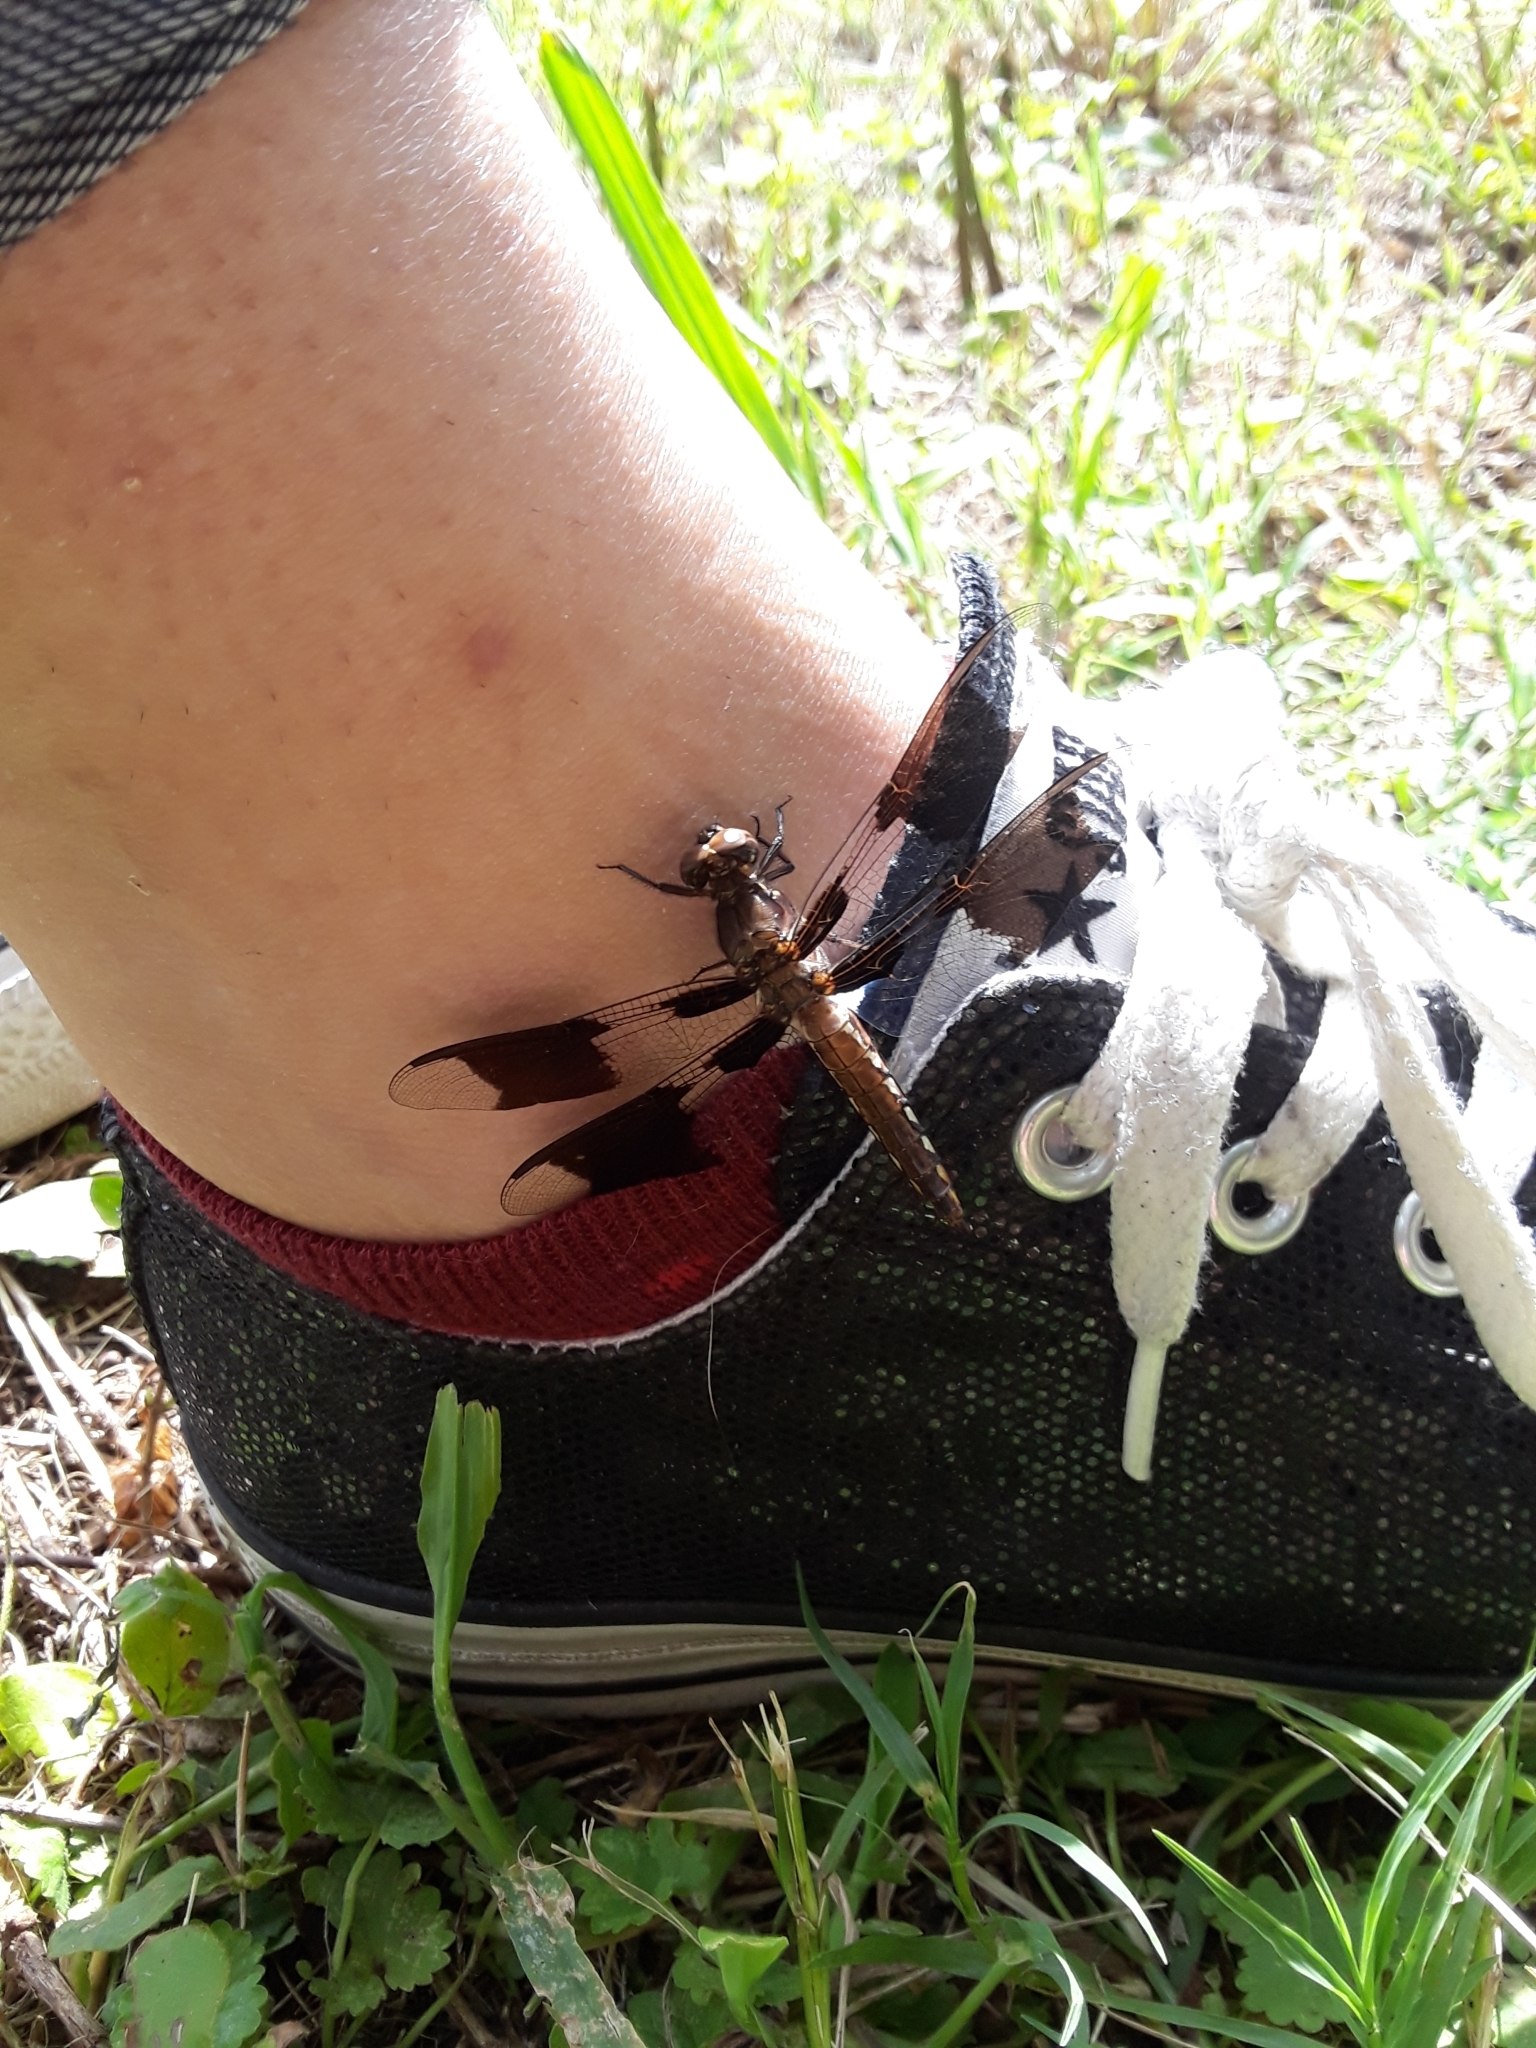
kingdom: Animalia
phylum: Arthropoda
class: Insecta
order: Odonata
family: Libellulidae
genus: Plathemis
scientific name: Plathemis lydia
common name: Common whitetail
